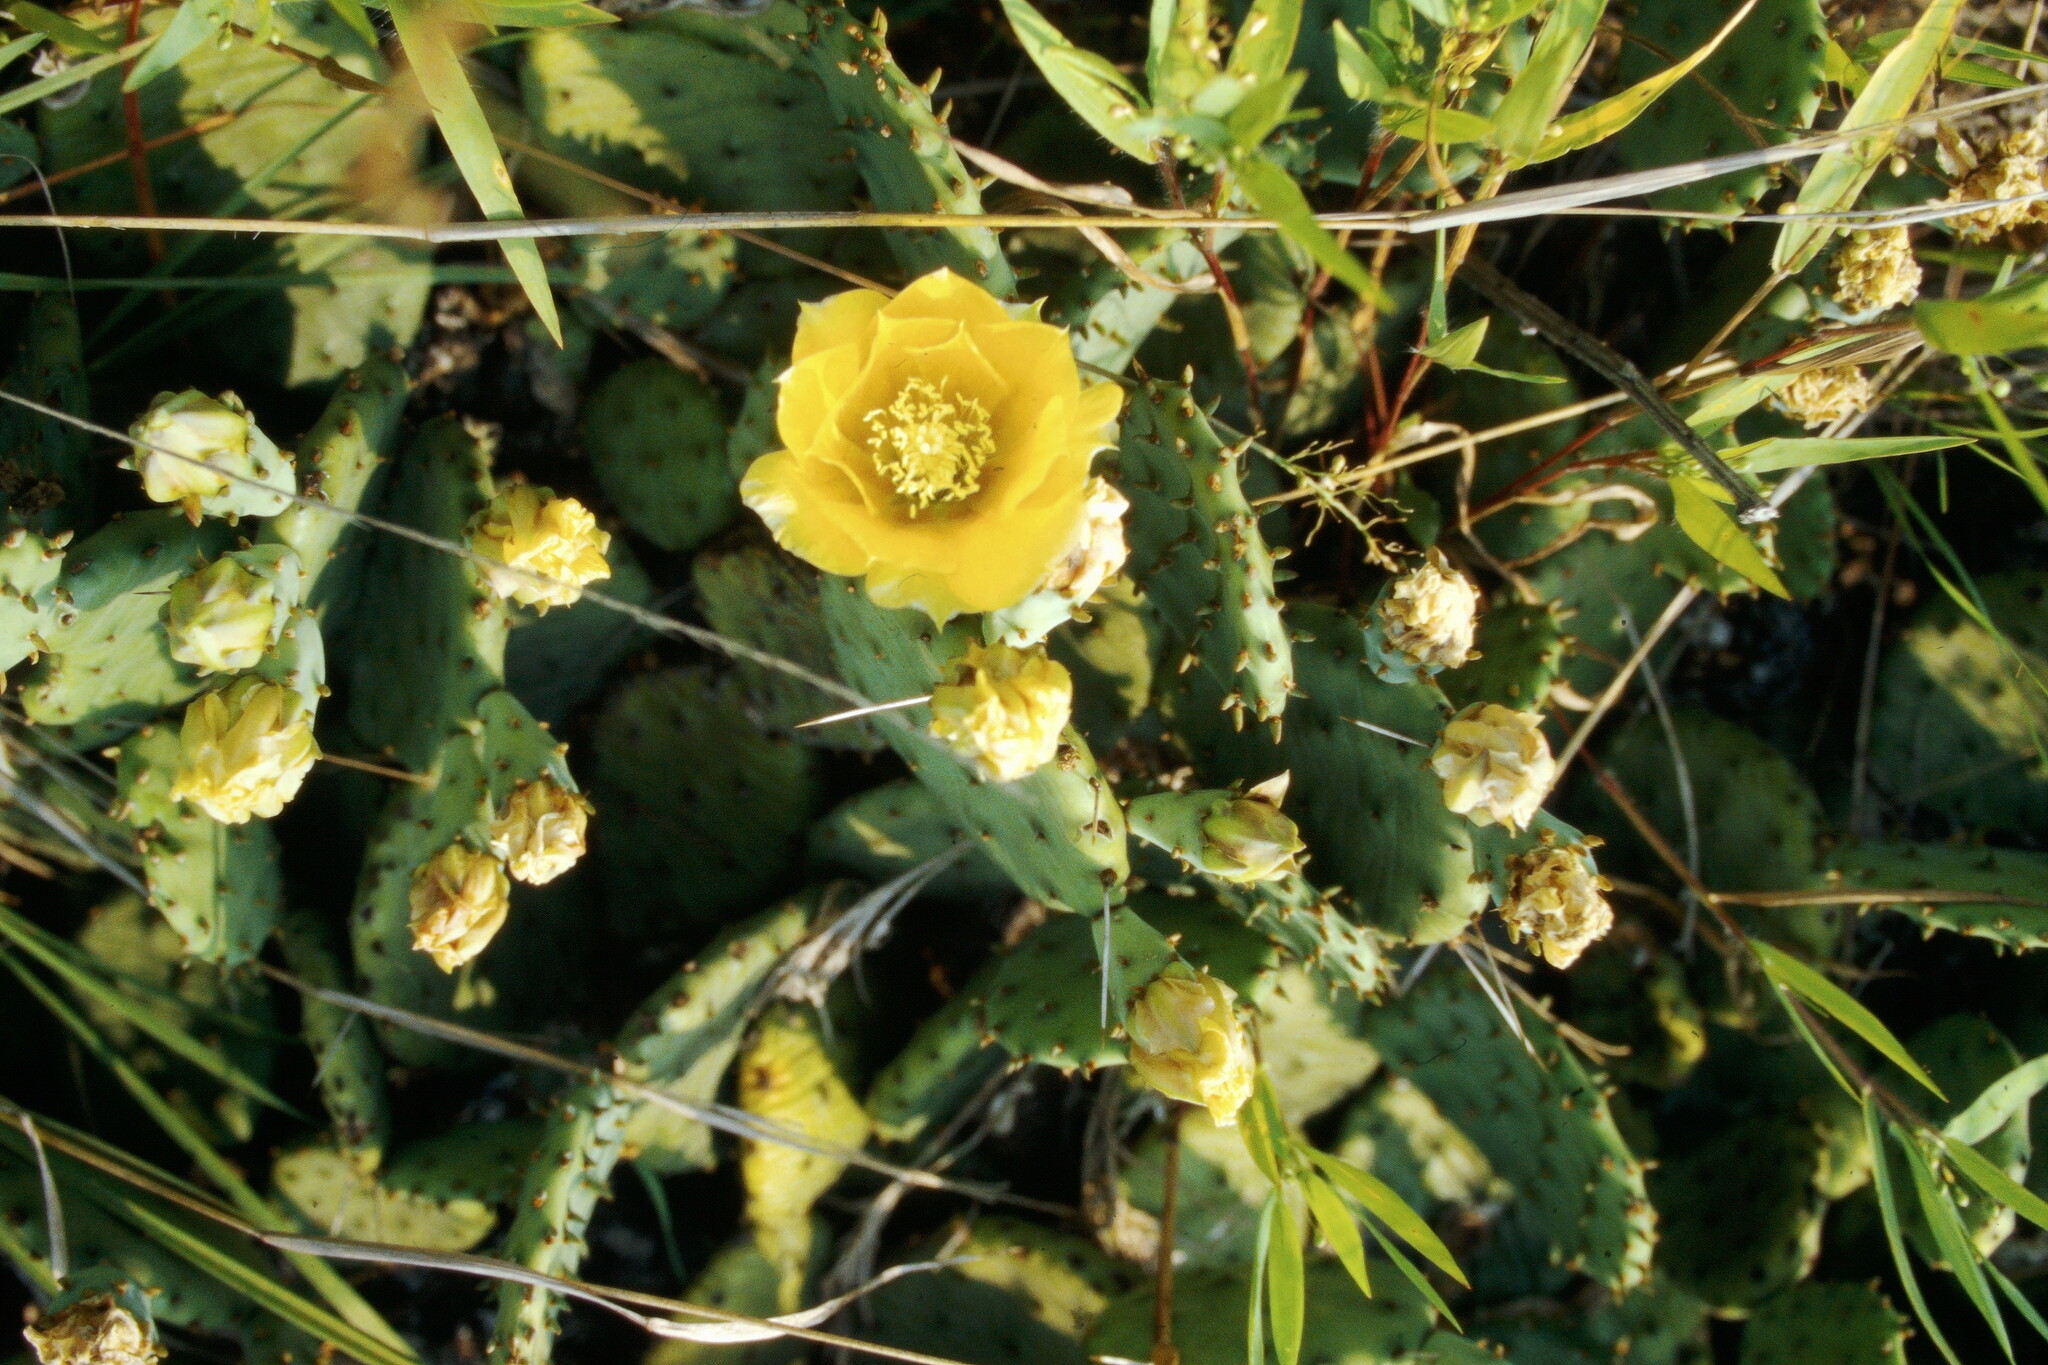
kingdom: Plantae
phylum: Tracheophyta
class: Magnoliopsida
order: Caryophyllales
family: Cactaceae
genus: Opuntia
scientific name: Opuntia humifusa
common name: Eastern prickly-pear
